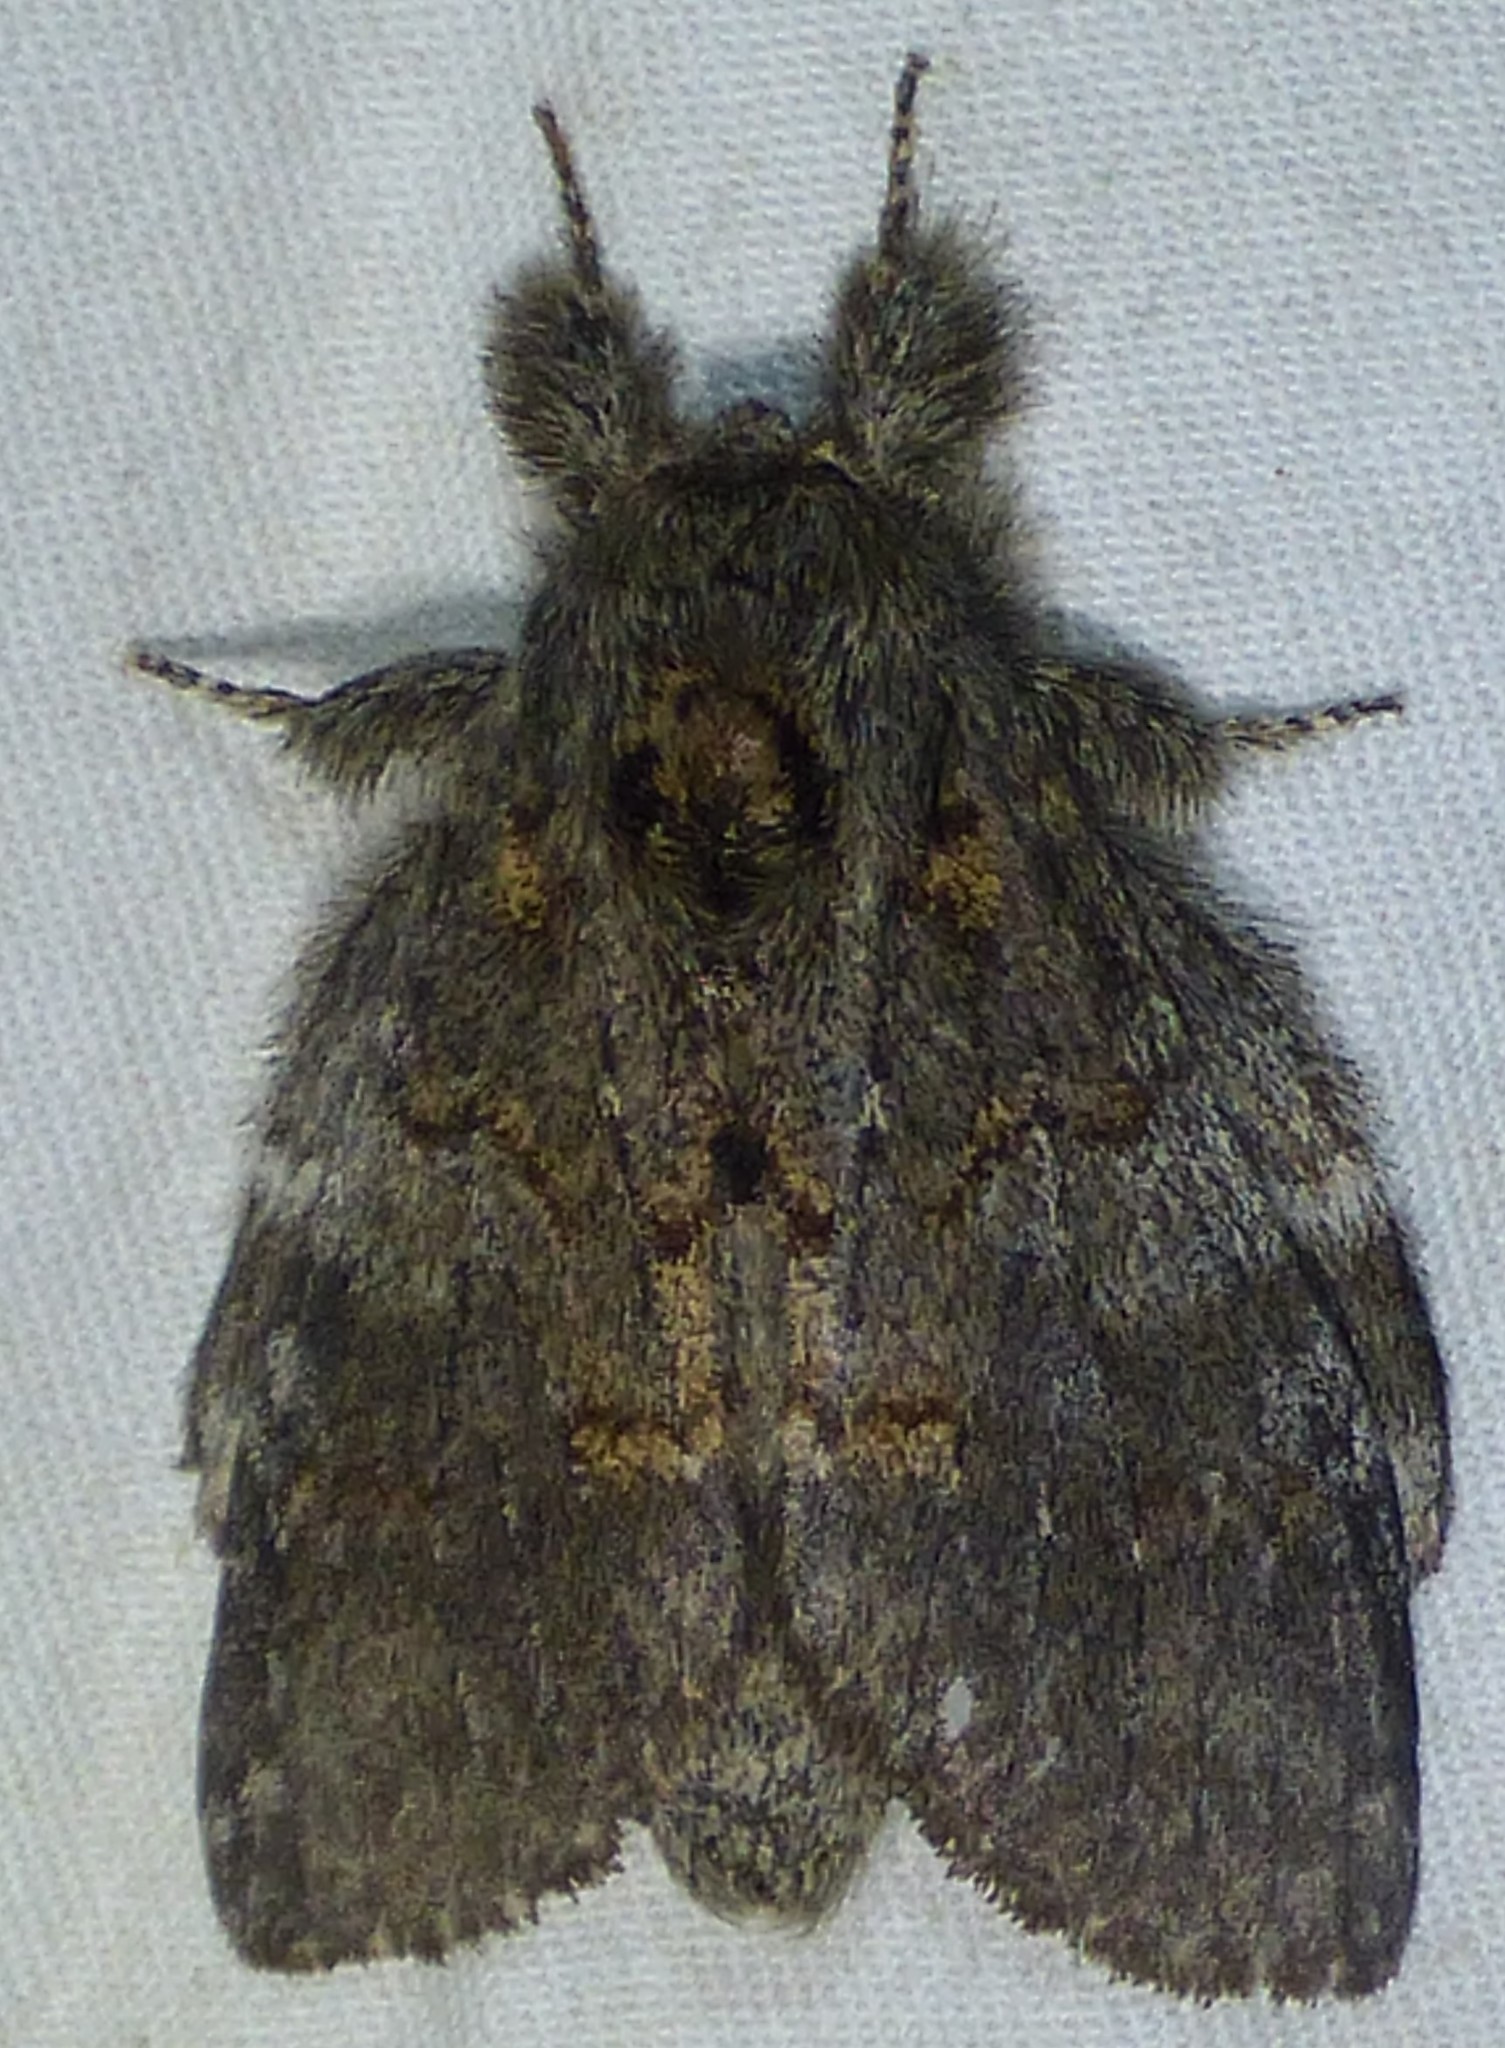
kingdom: Animalia
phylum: Arthropoda
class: Insecta
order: Lepidoptera
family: Notodontidae
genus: Peridea
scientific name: Peridea angulosa
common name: Angulose prominent
